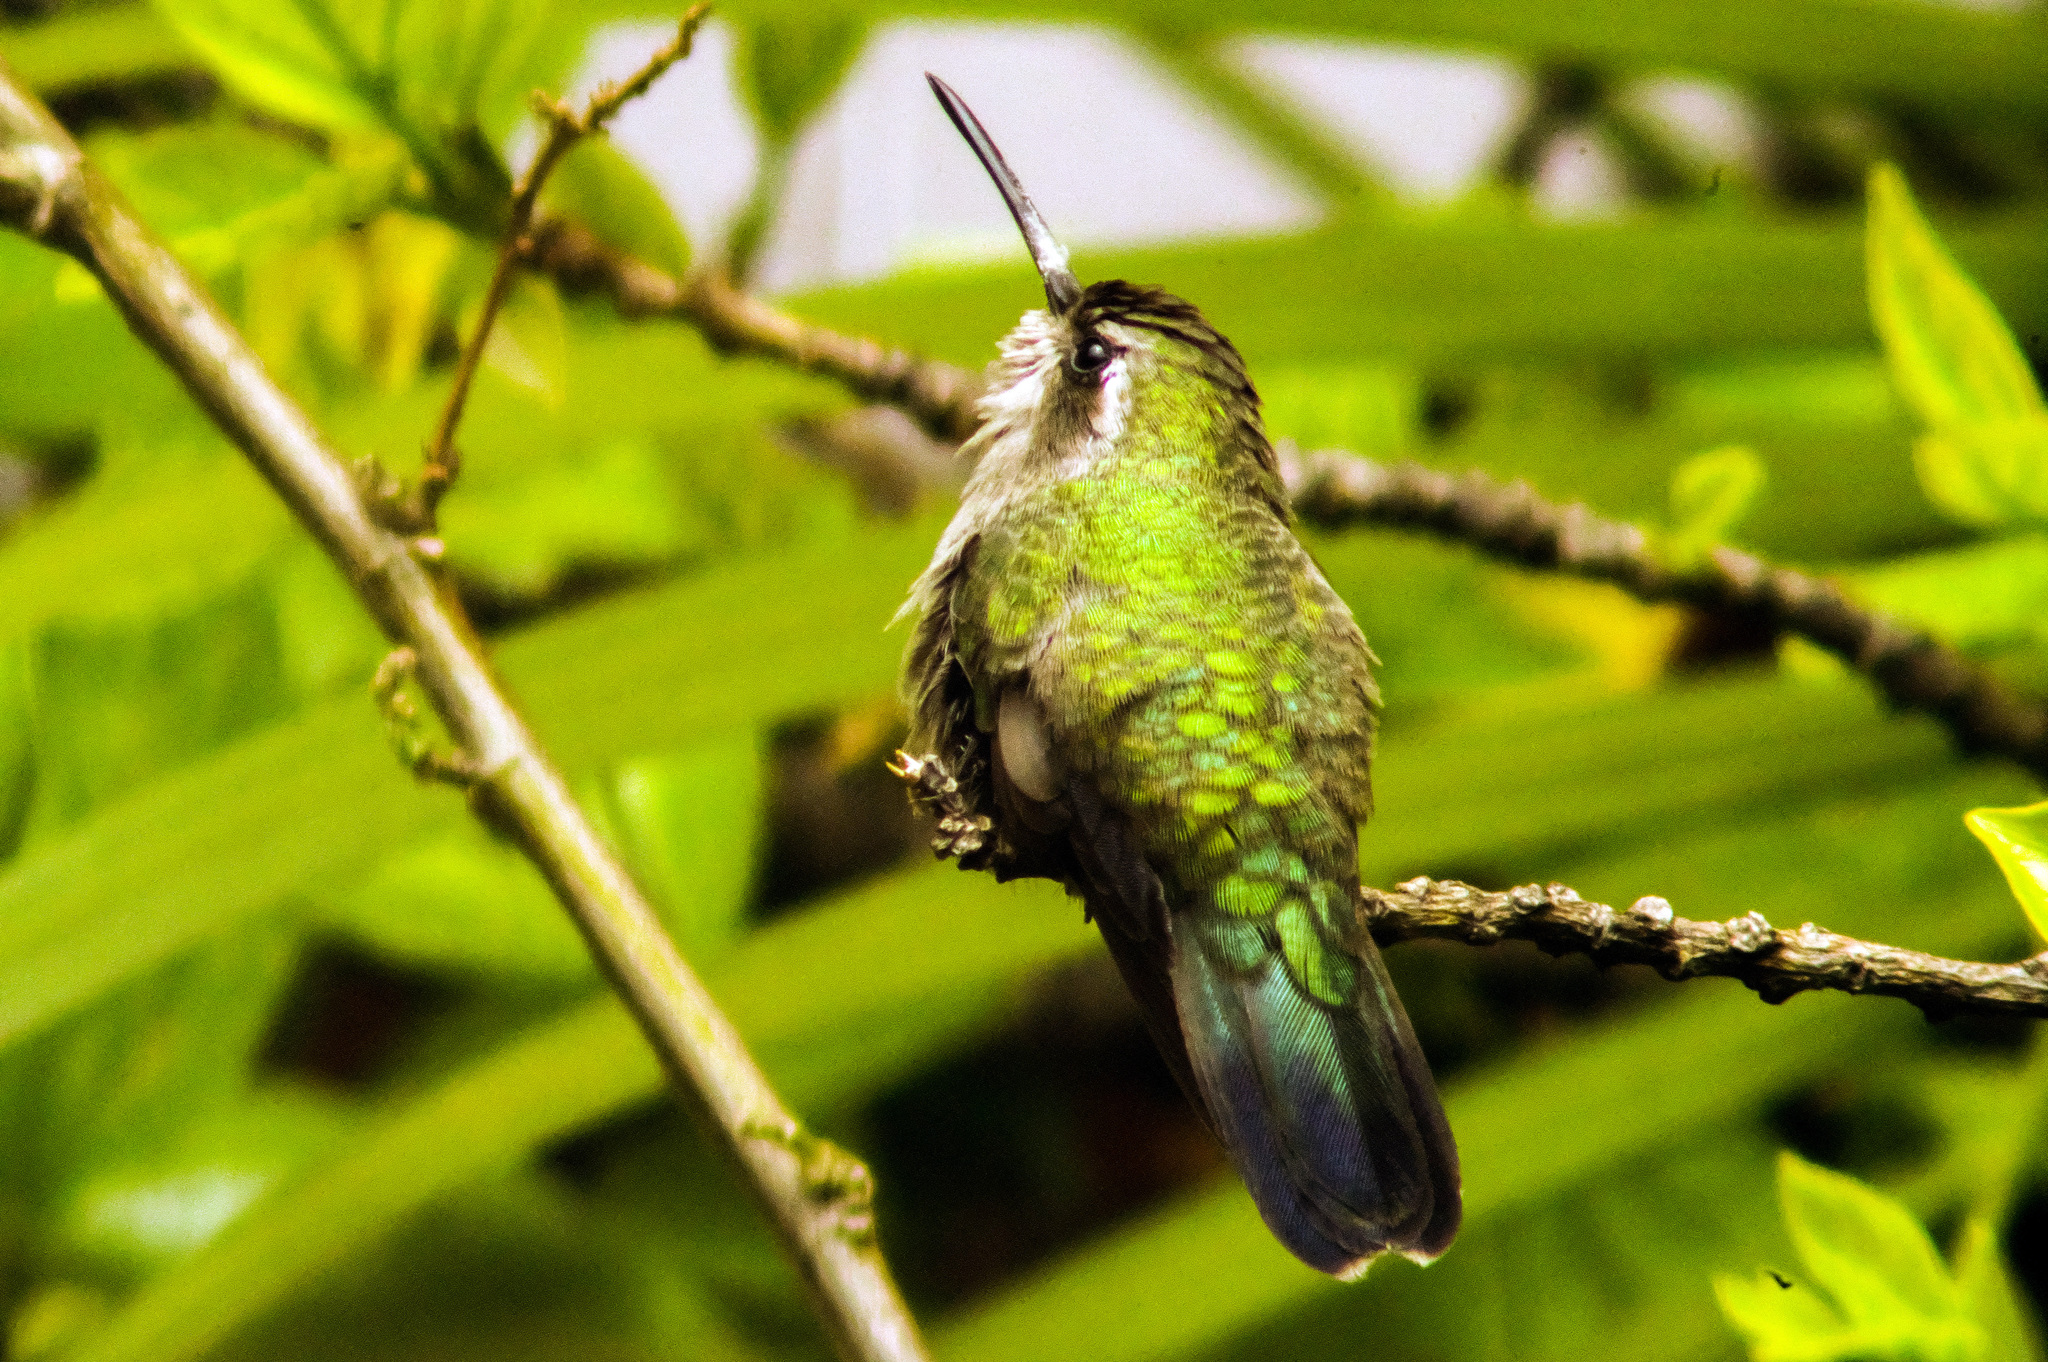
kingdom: Animalia
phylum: Chordata
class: Aves
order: Apodiformes
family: Trochilidae
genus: Cynanthus
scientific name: Cynanthus latirostris
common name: Broad-billed hummingbird
